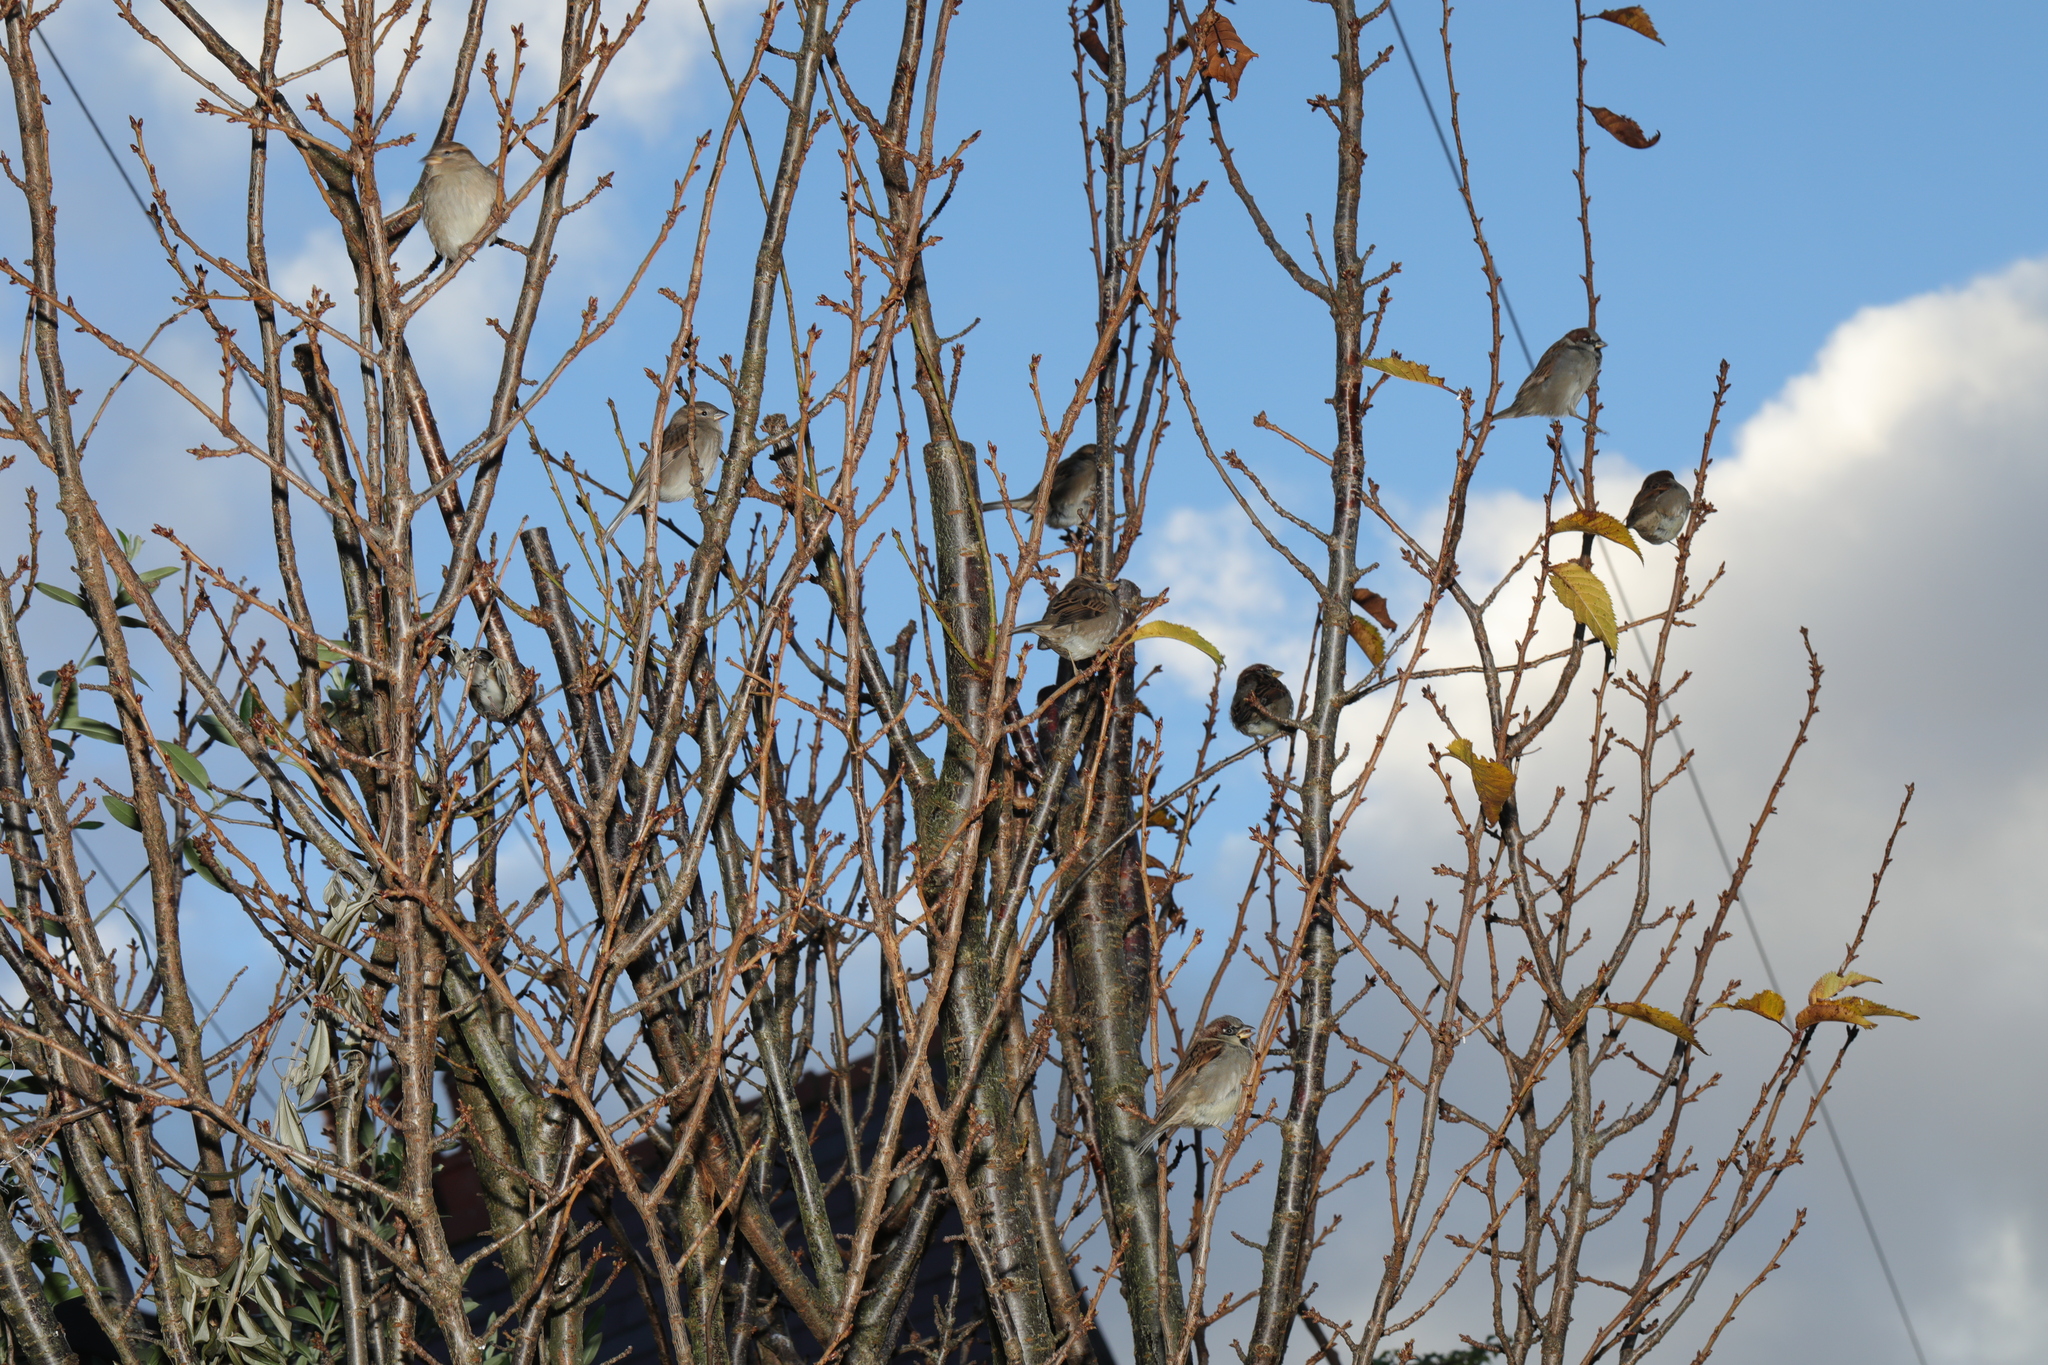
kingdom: Animalia
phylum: Chordata
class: Aves
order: Passeriformes
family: Passeridae
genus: Passer
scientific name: Passer domesticus
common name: House sparrow
